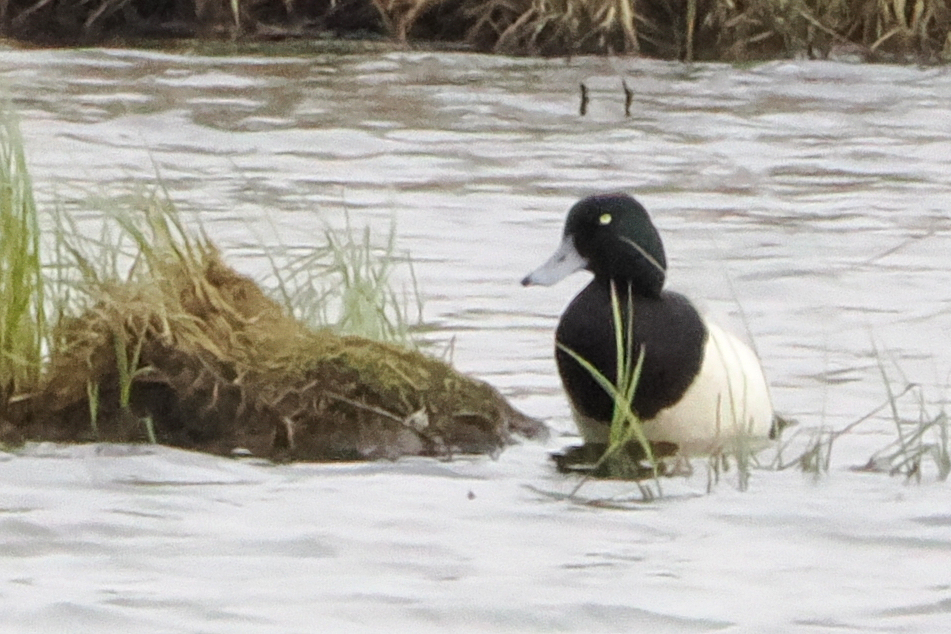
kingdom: Animalia
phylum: Chordata
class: Aves
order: Anseriformes
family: Anatidae
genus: Aythya
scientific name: Aythya marila
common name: Greater scaup
